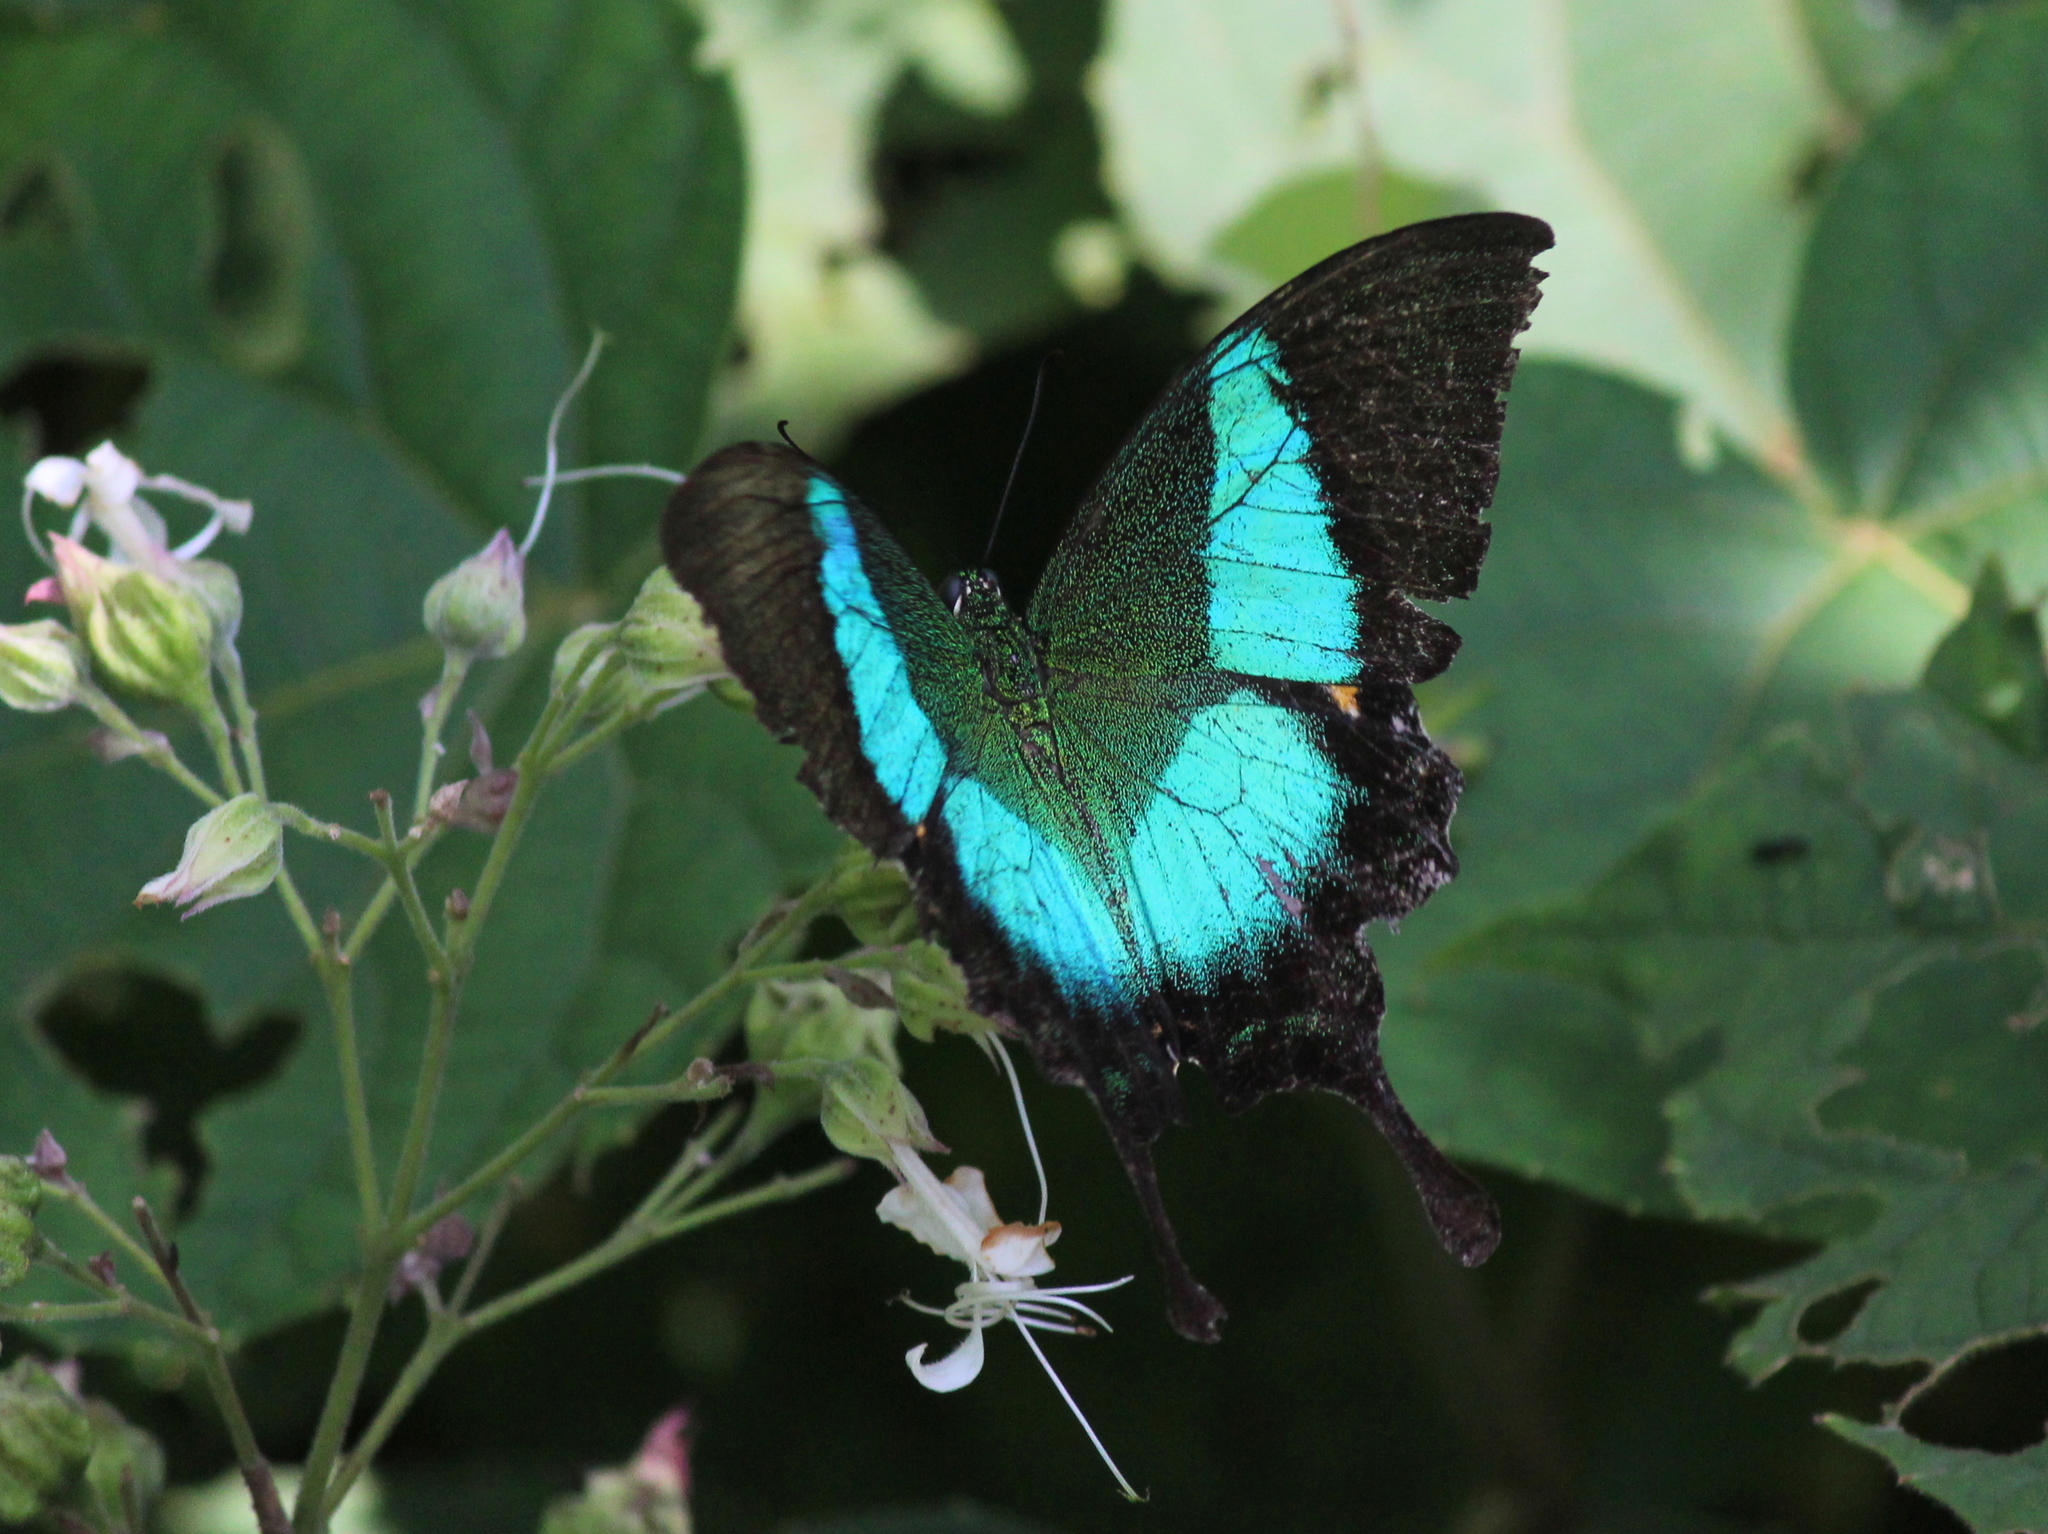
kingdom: Animalia
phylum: Arthropoda
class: Insecta
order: Lepidoptera
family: Papilionidae
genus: Papilio
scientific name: Papilio buddha
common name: Malabar banded peacock
